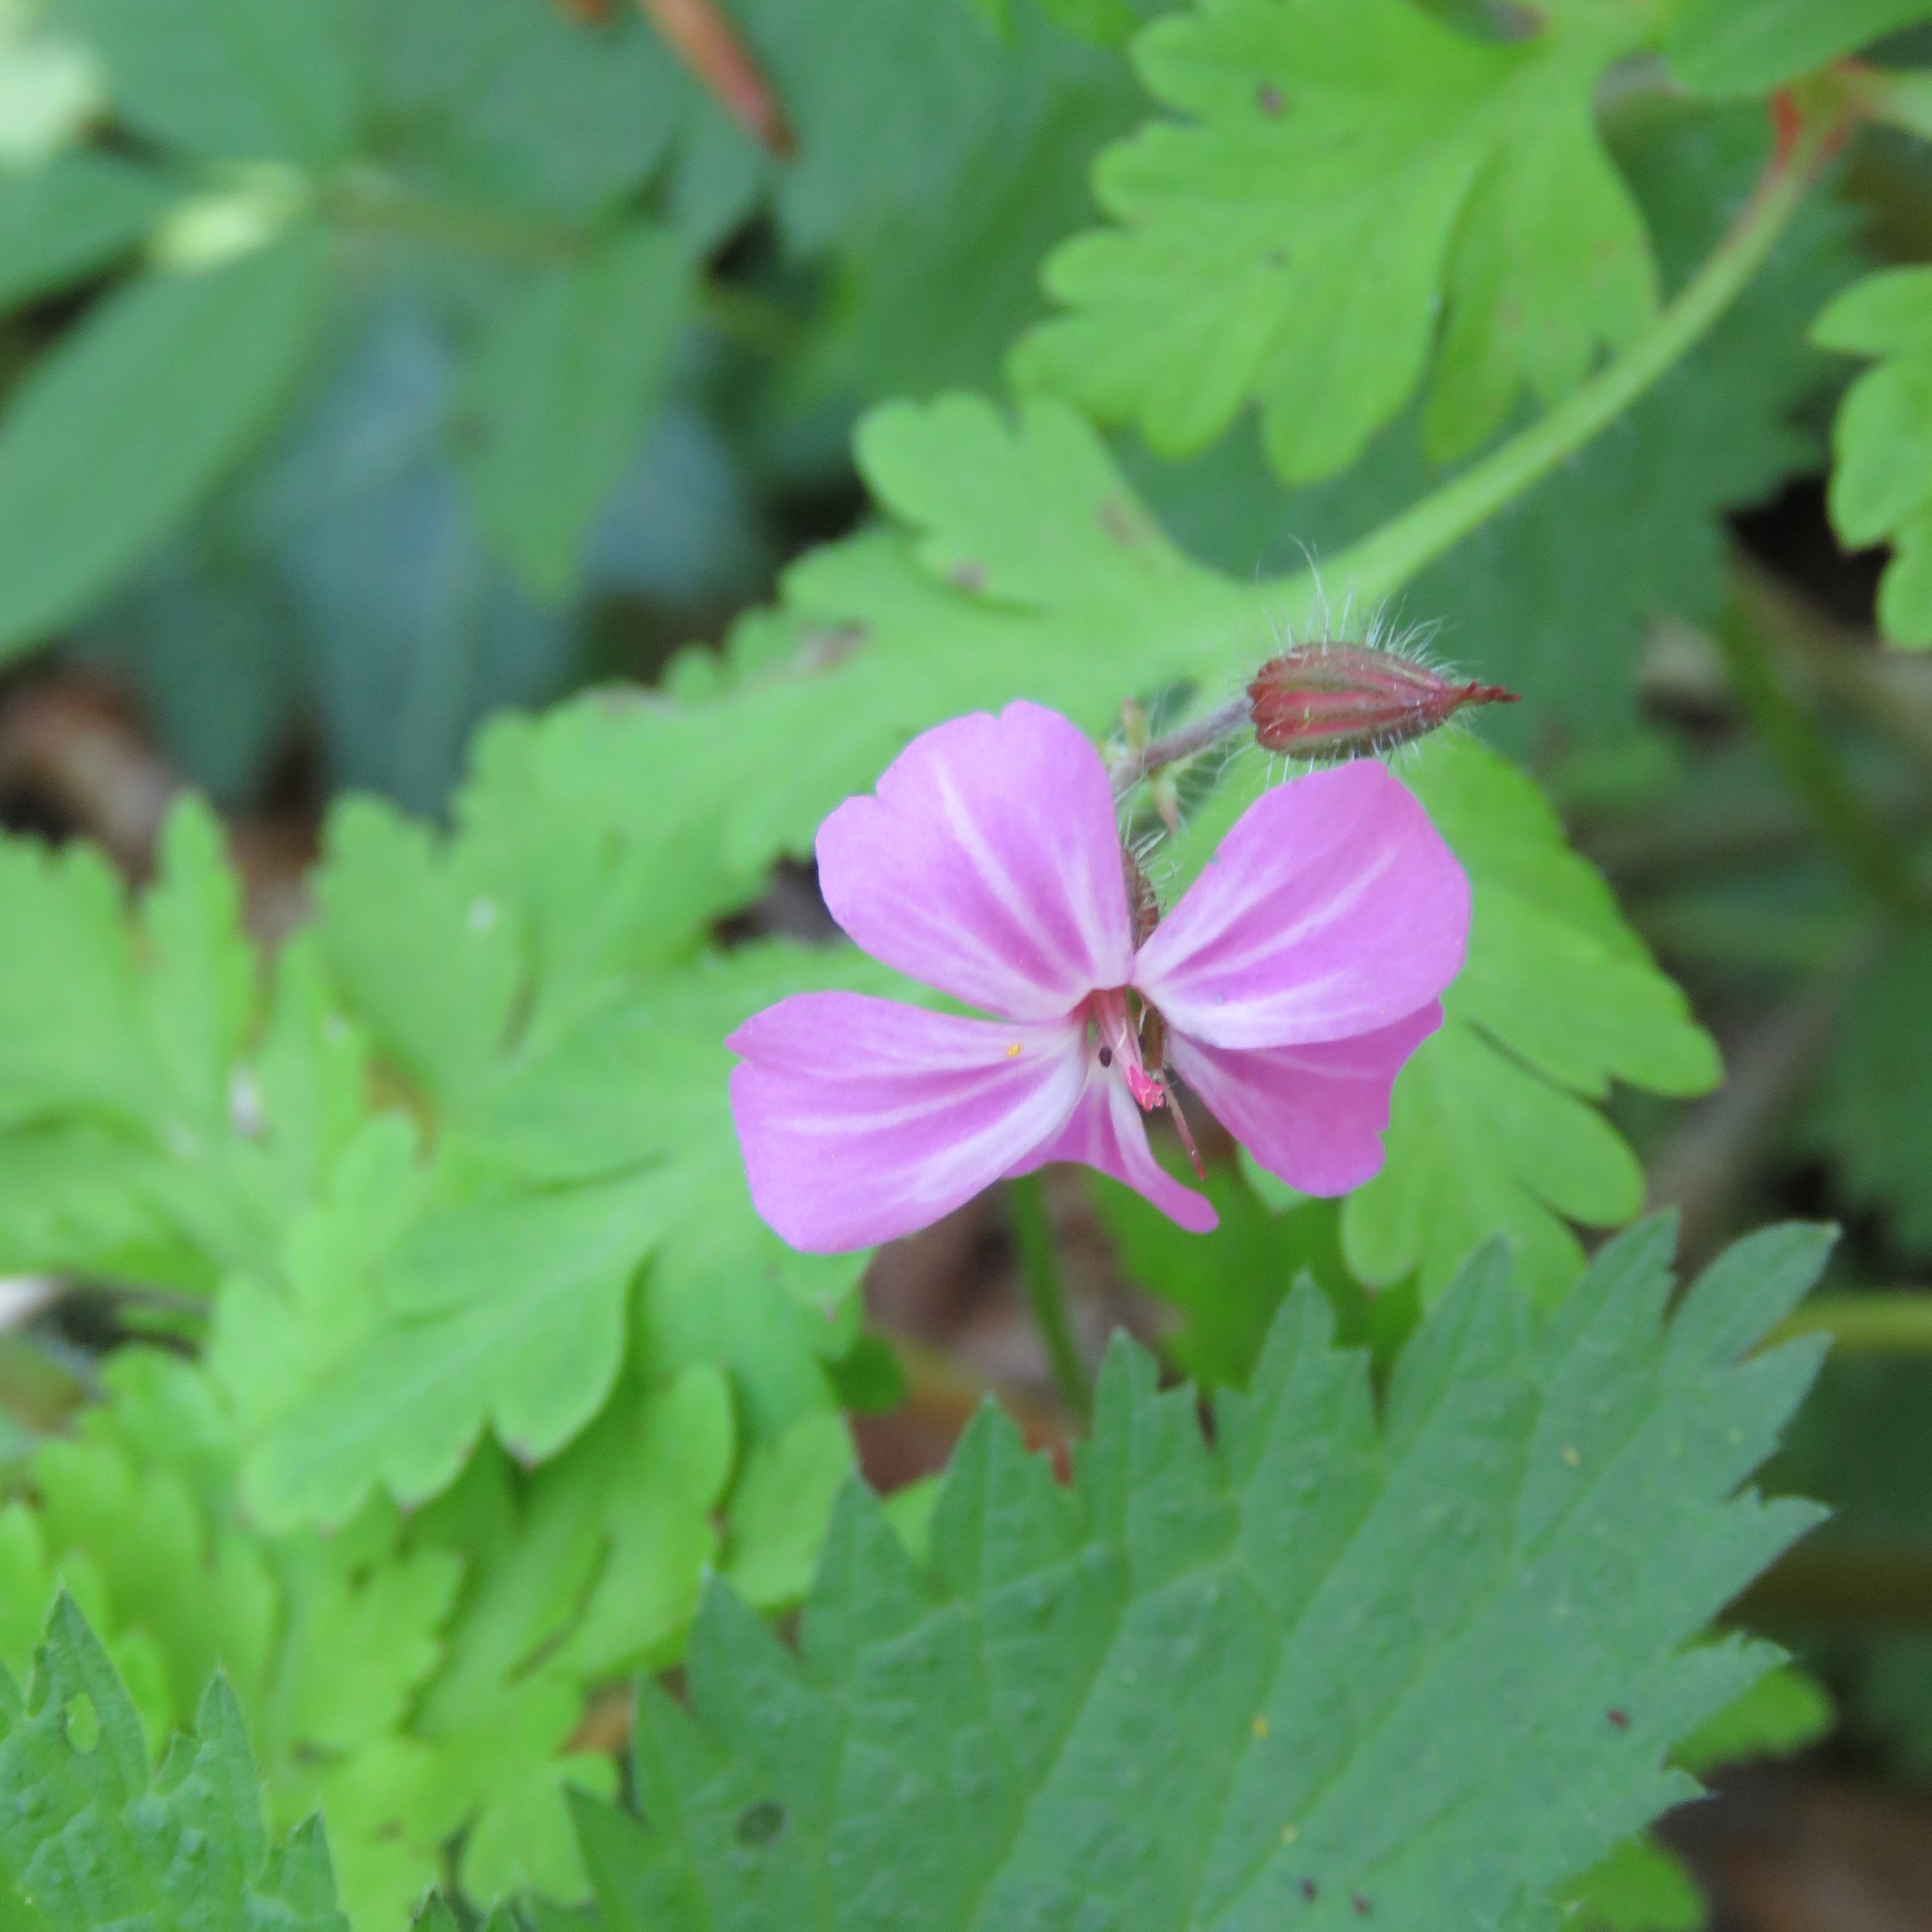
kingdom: Plantae
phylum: Tracheophyta
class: Magnoliopsida
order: Geraniales
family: Geraniaceae
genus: Geranium
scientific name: Geranium robertianum
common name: Herb-robert
